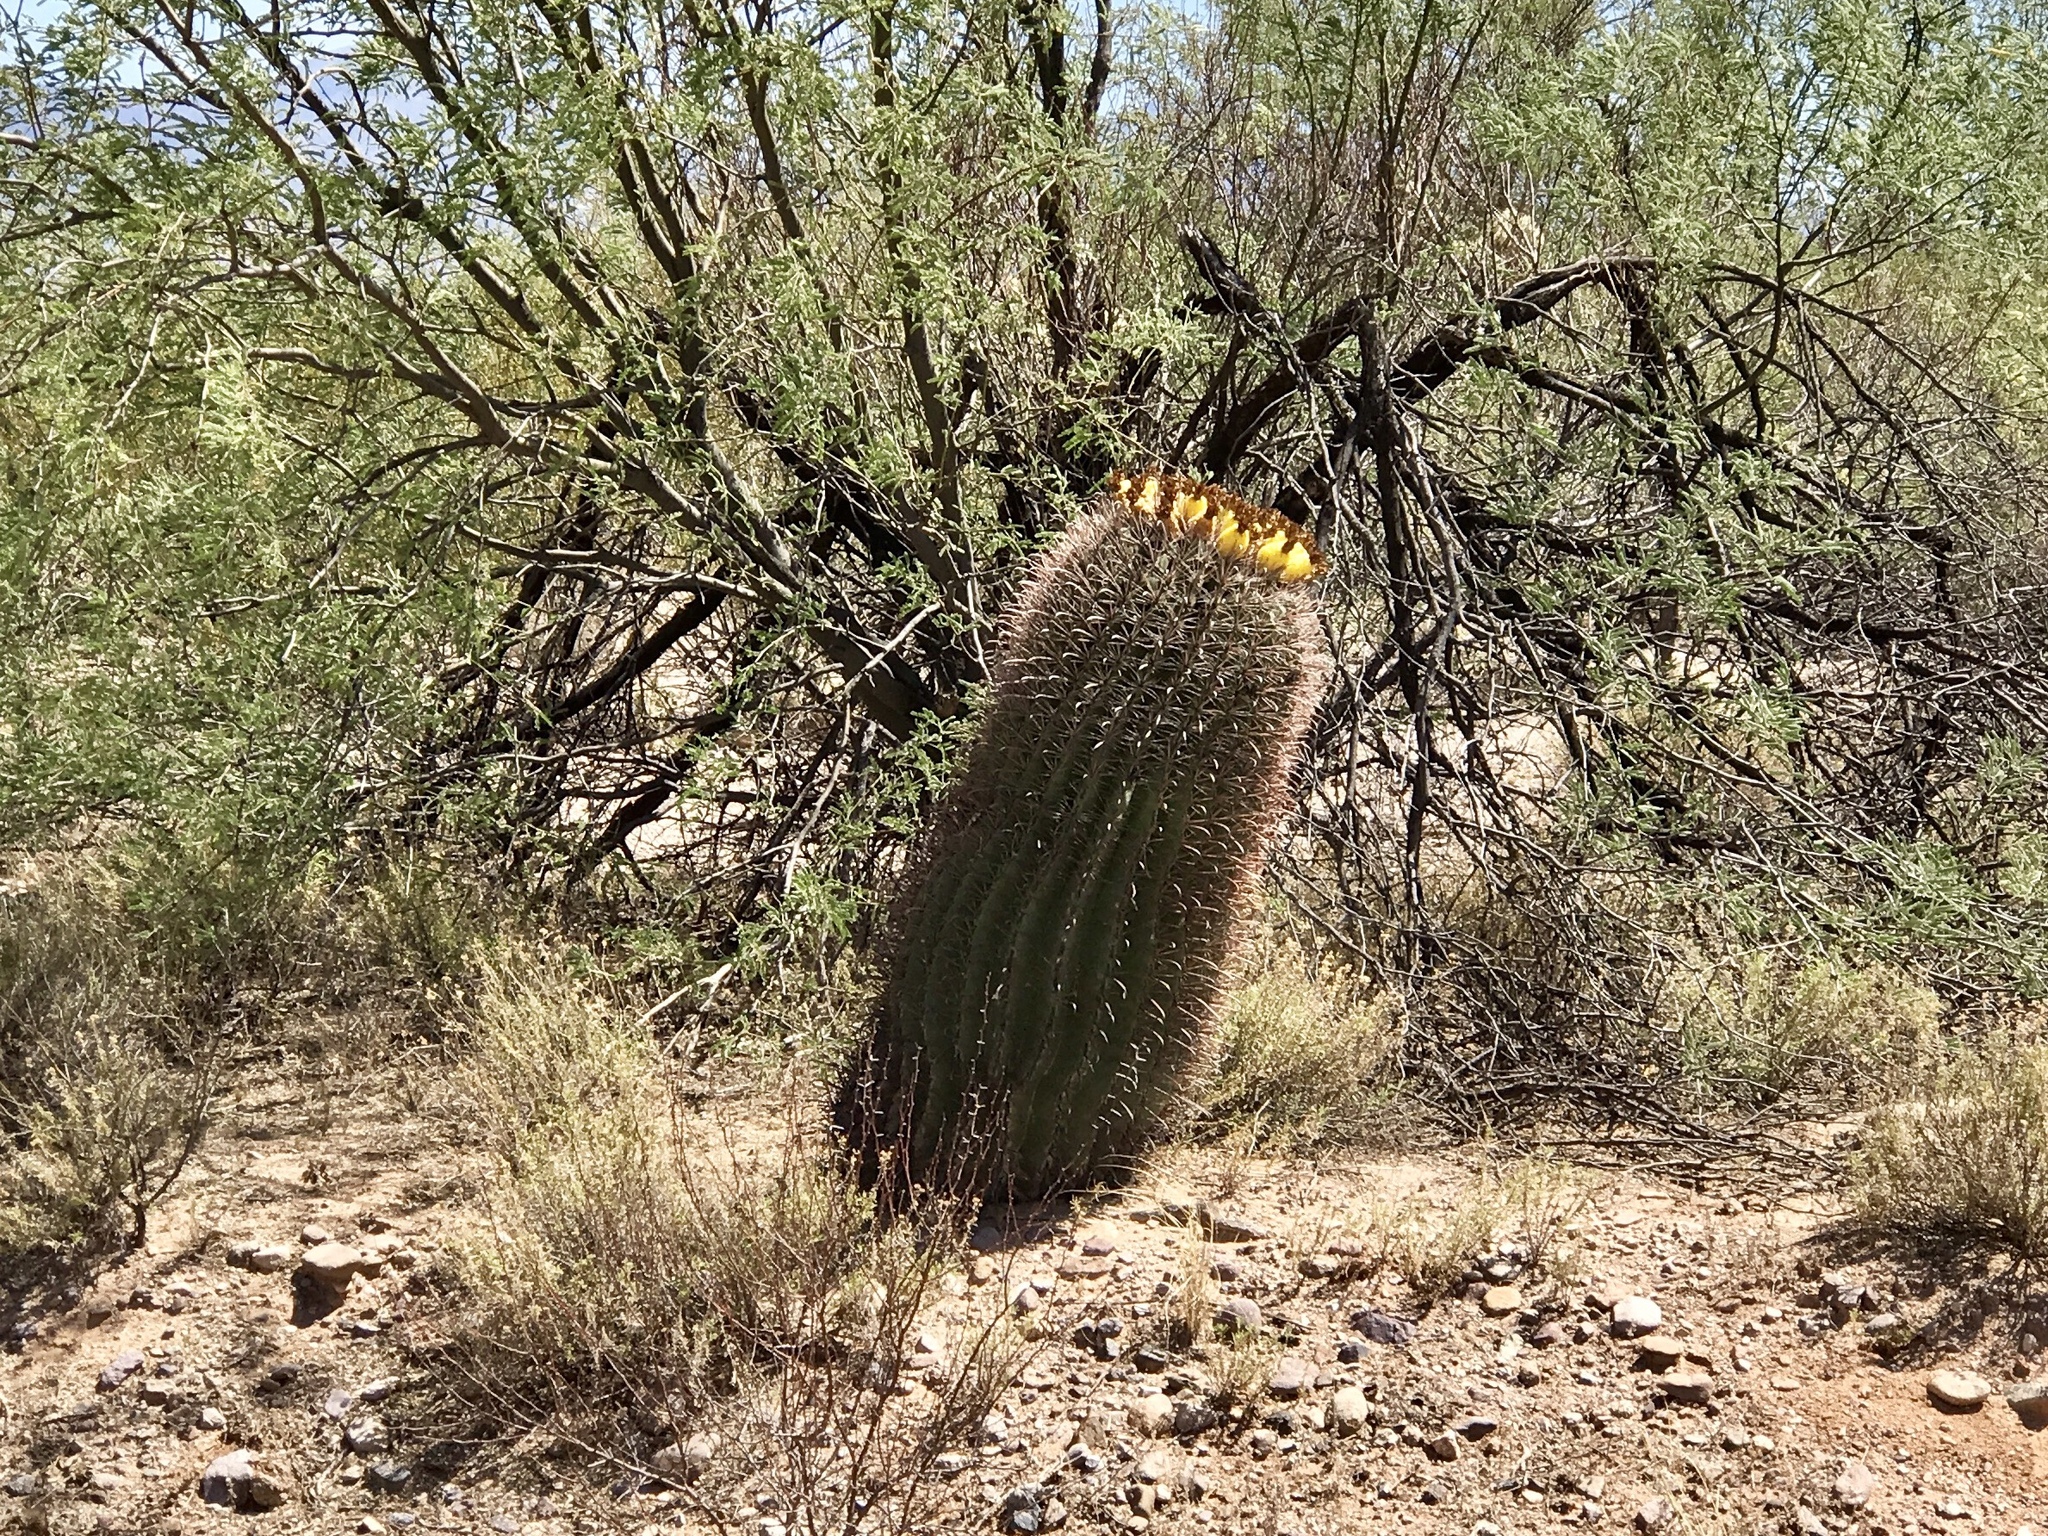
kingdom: Plantae
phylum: Tracheophyta
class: Magnoliopsida
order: Caryophyllales
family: Cactaceae
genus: Ferocactus
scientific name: Ferocactus wislizeni
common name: Candy barrel cactus
